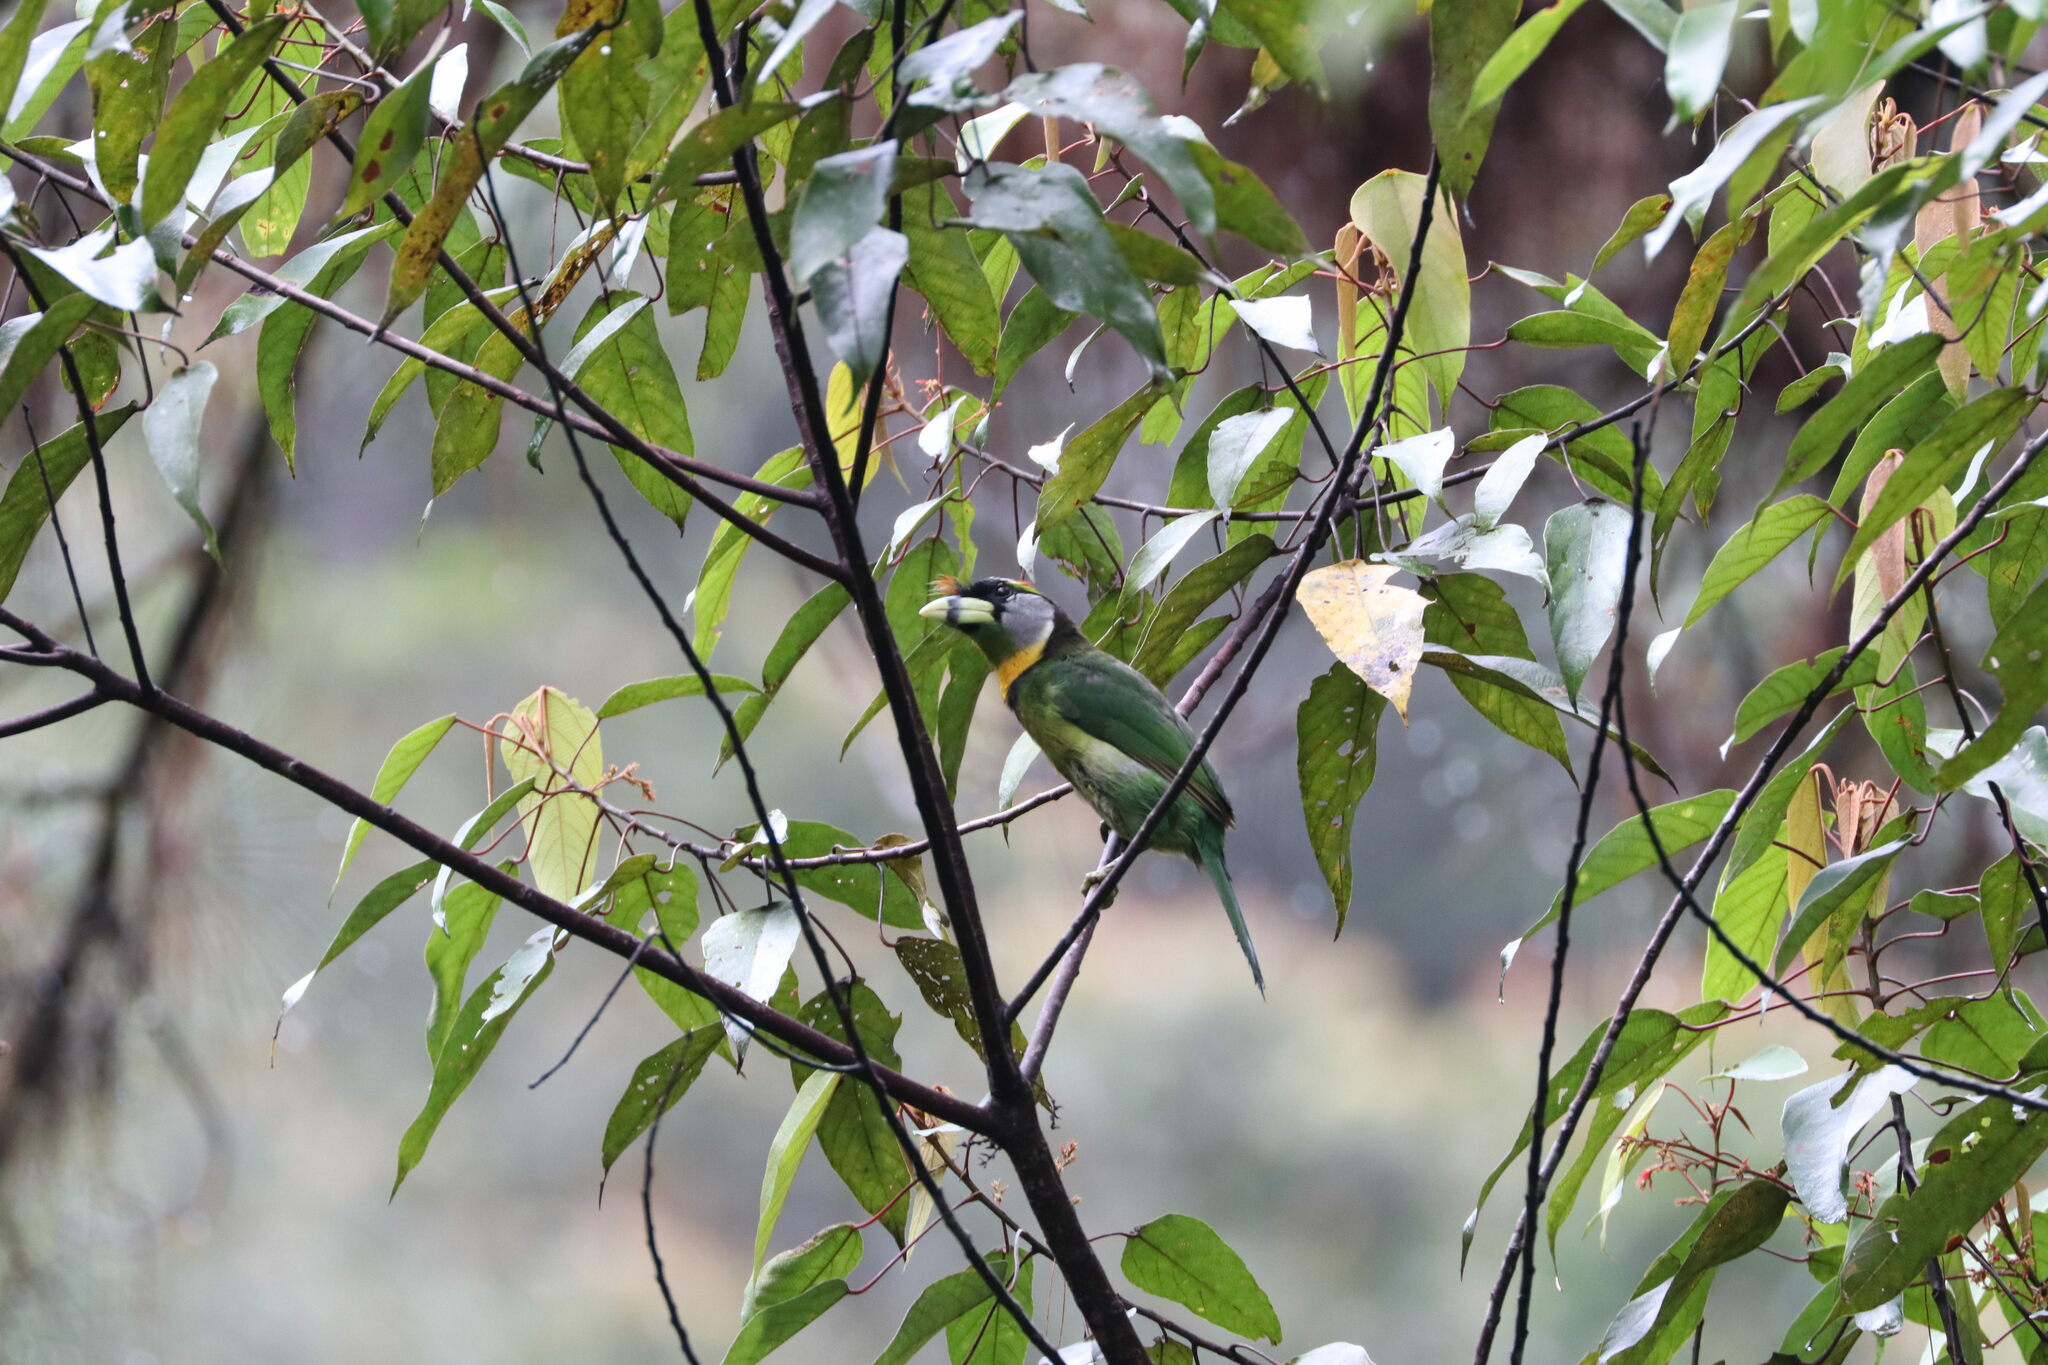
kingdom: Animalia
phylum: Chordata
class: Aves
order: Piciformes
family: Megalaimidae
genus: Psilopogon
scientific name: Psilopogon pyrolophus
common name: Fire-tufted barbet
